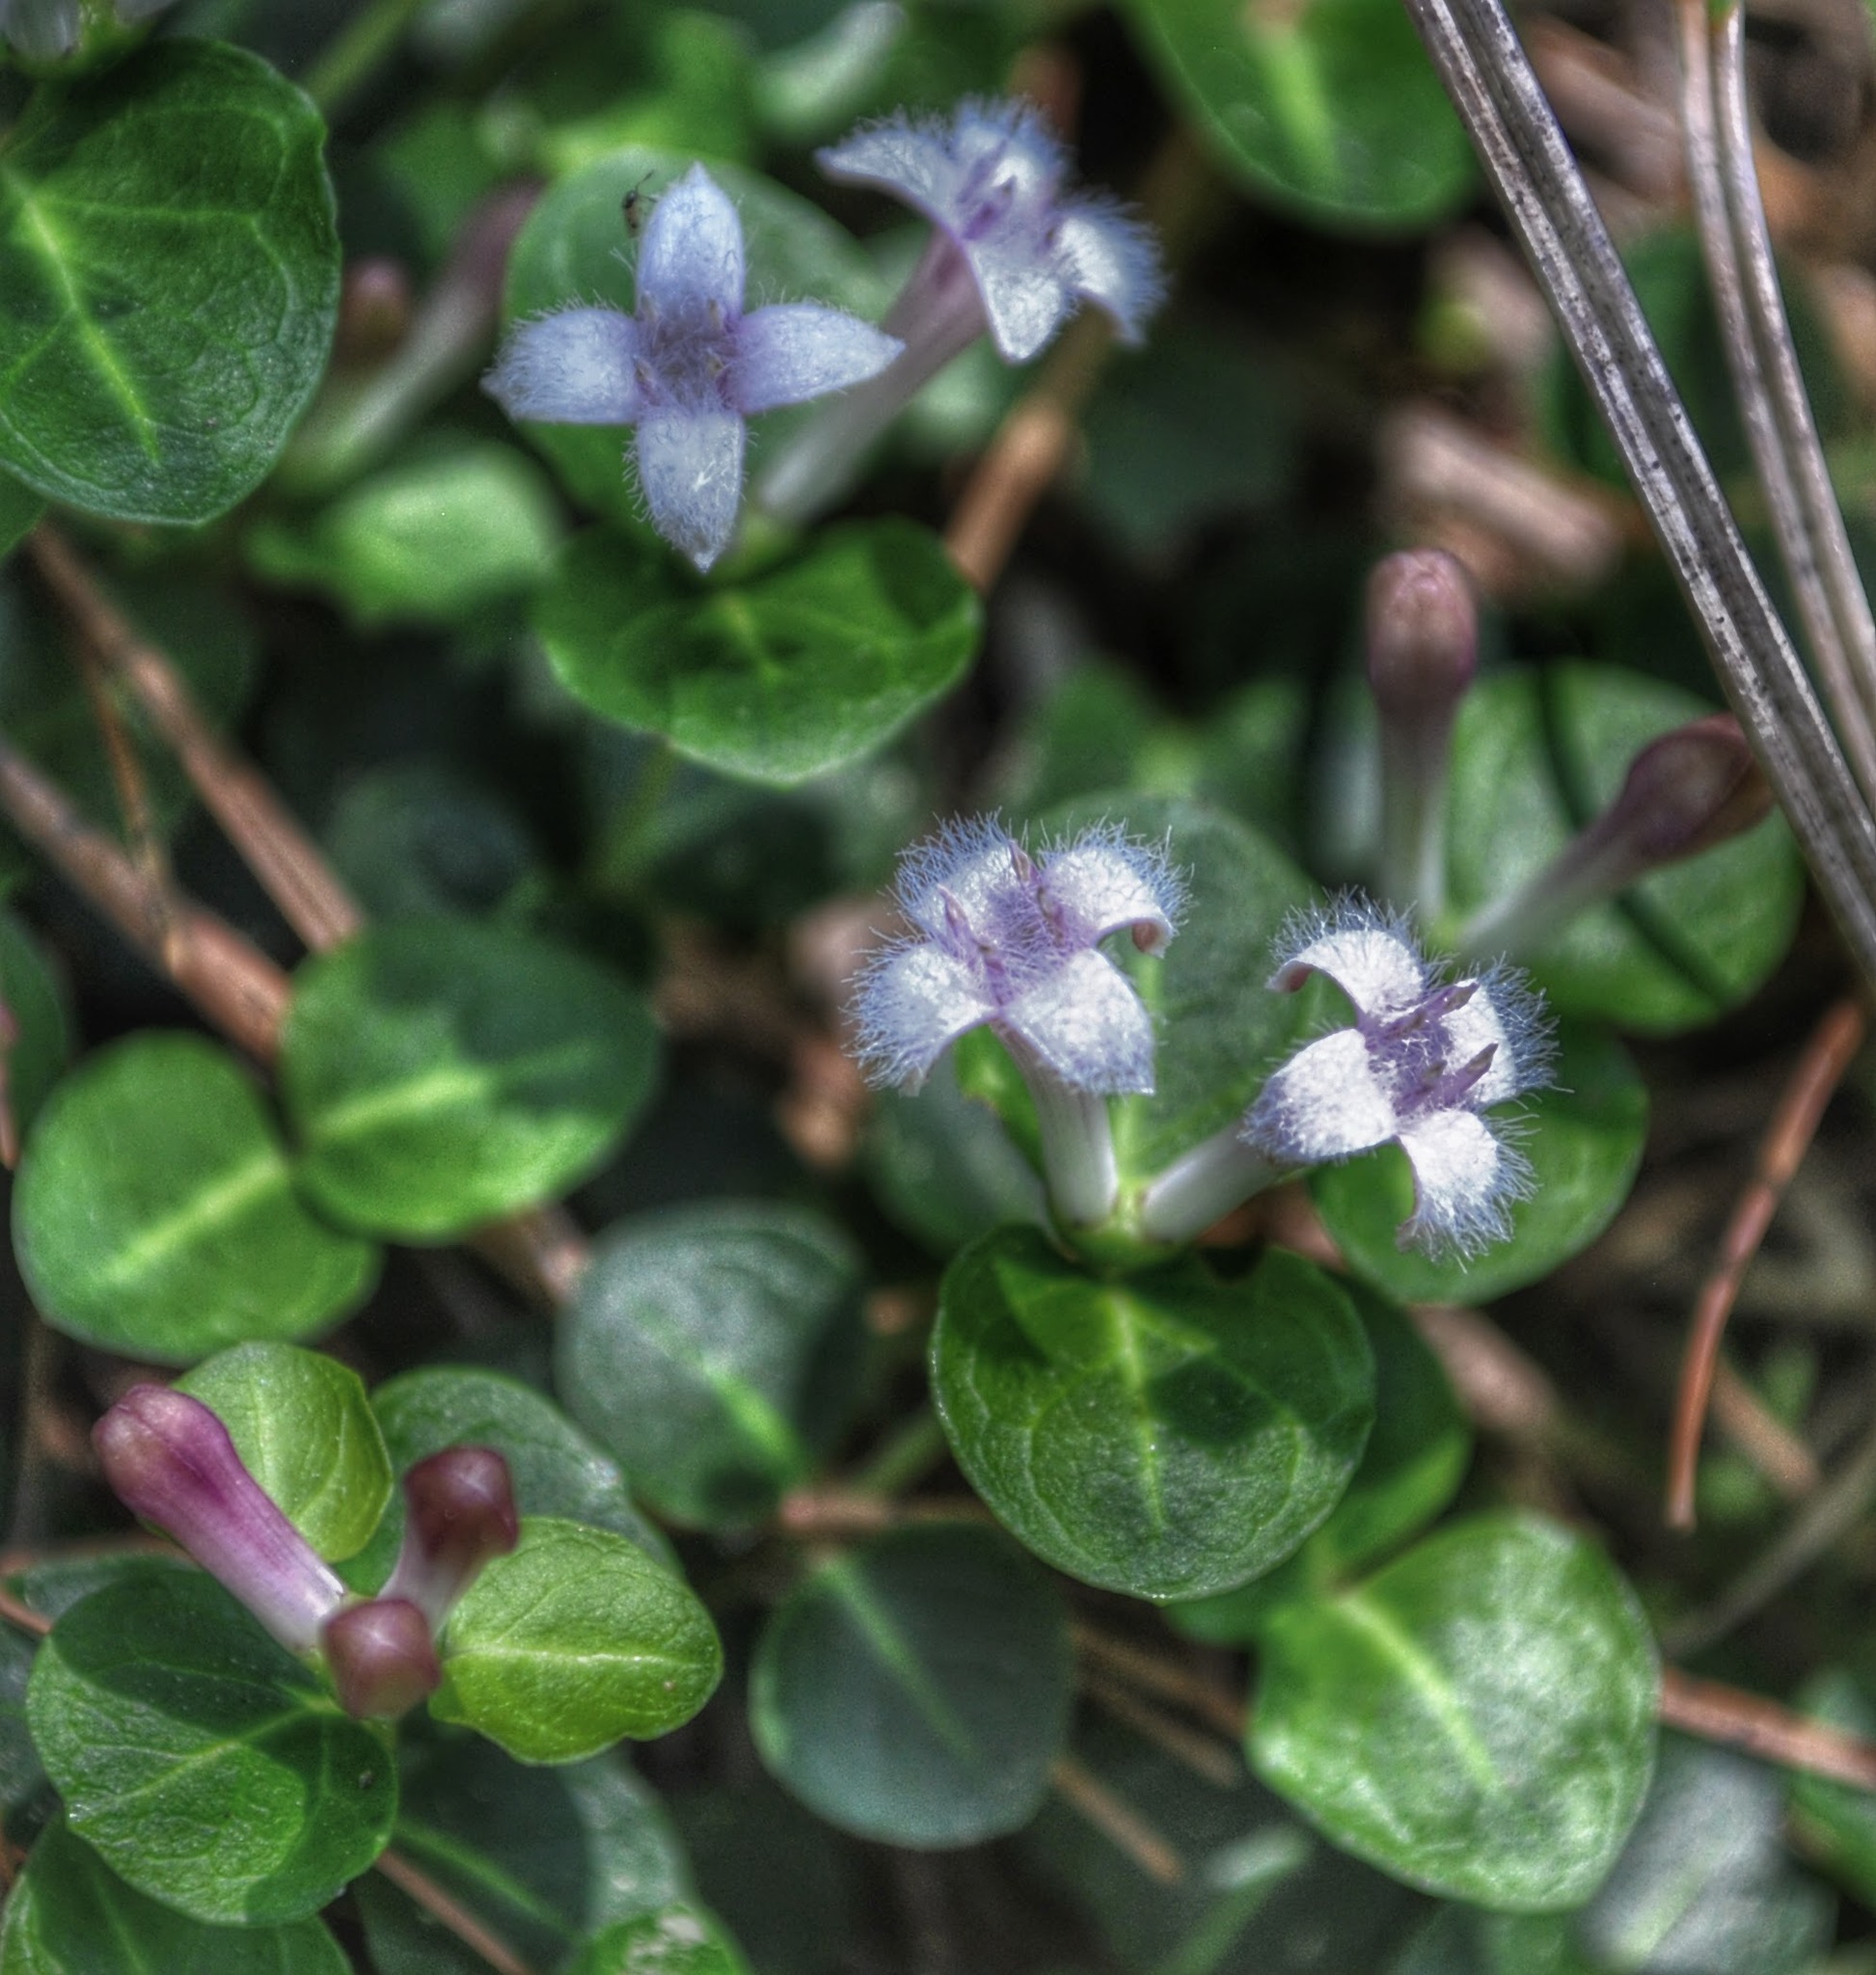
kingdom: Plantae
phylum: Tracheophyta
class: Magnoliopsida
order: Gentianales
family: Rubiaceae
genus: Mitchella
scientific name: Mitchella repens
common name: Partridge-berry
